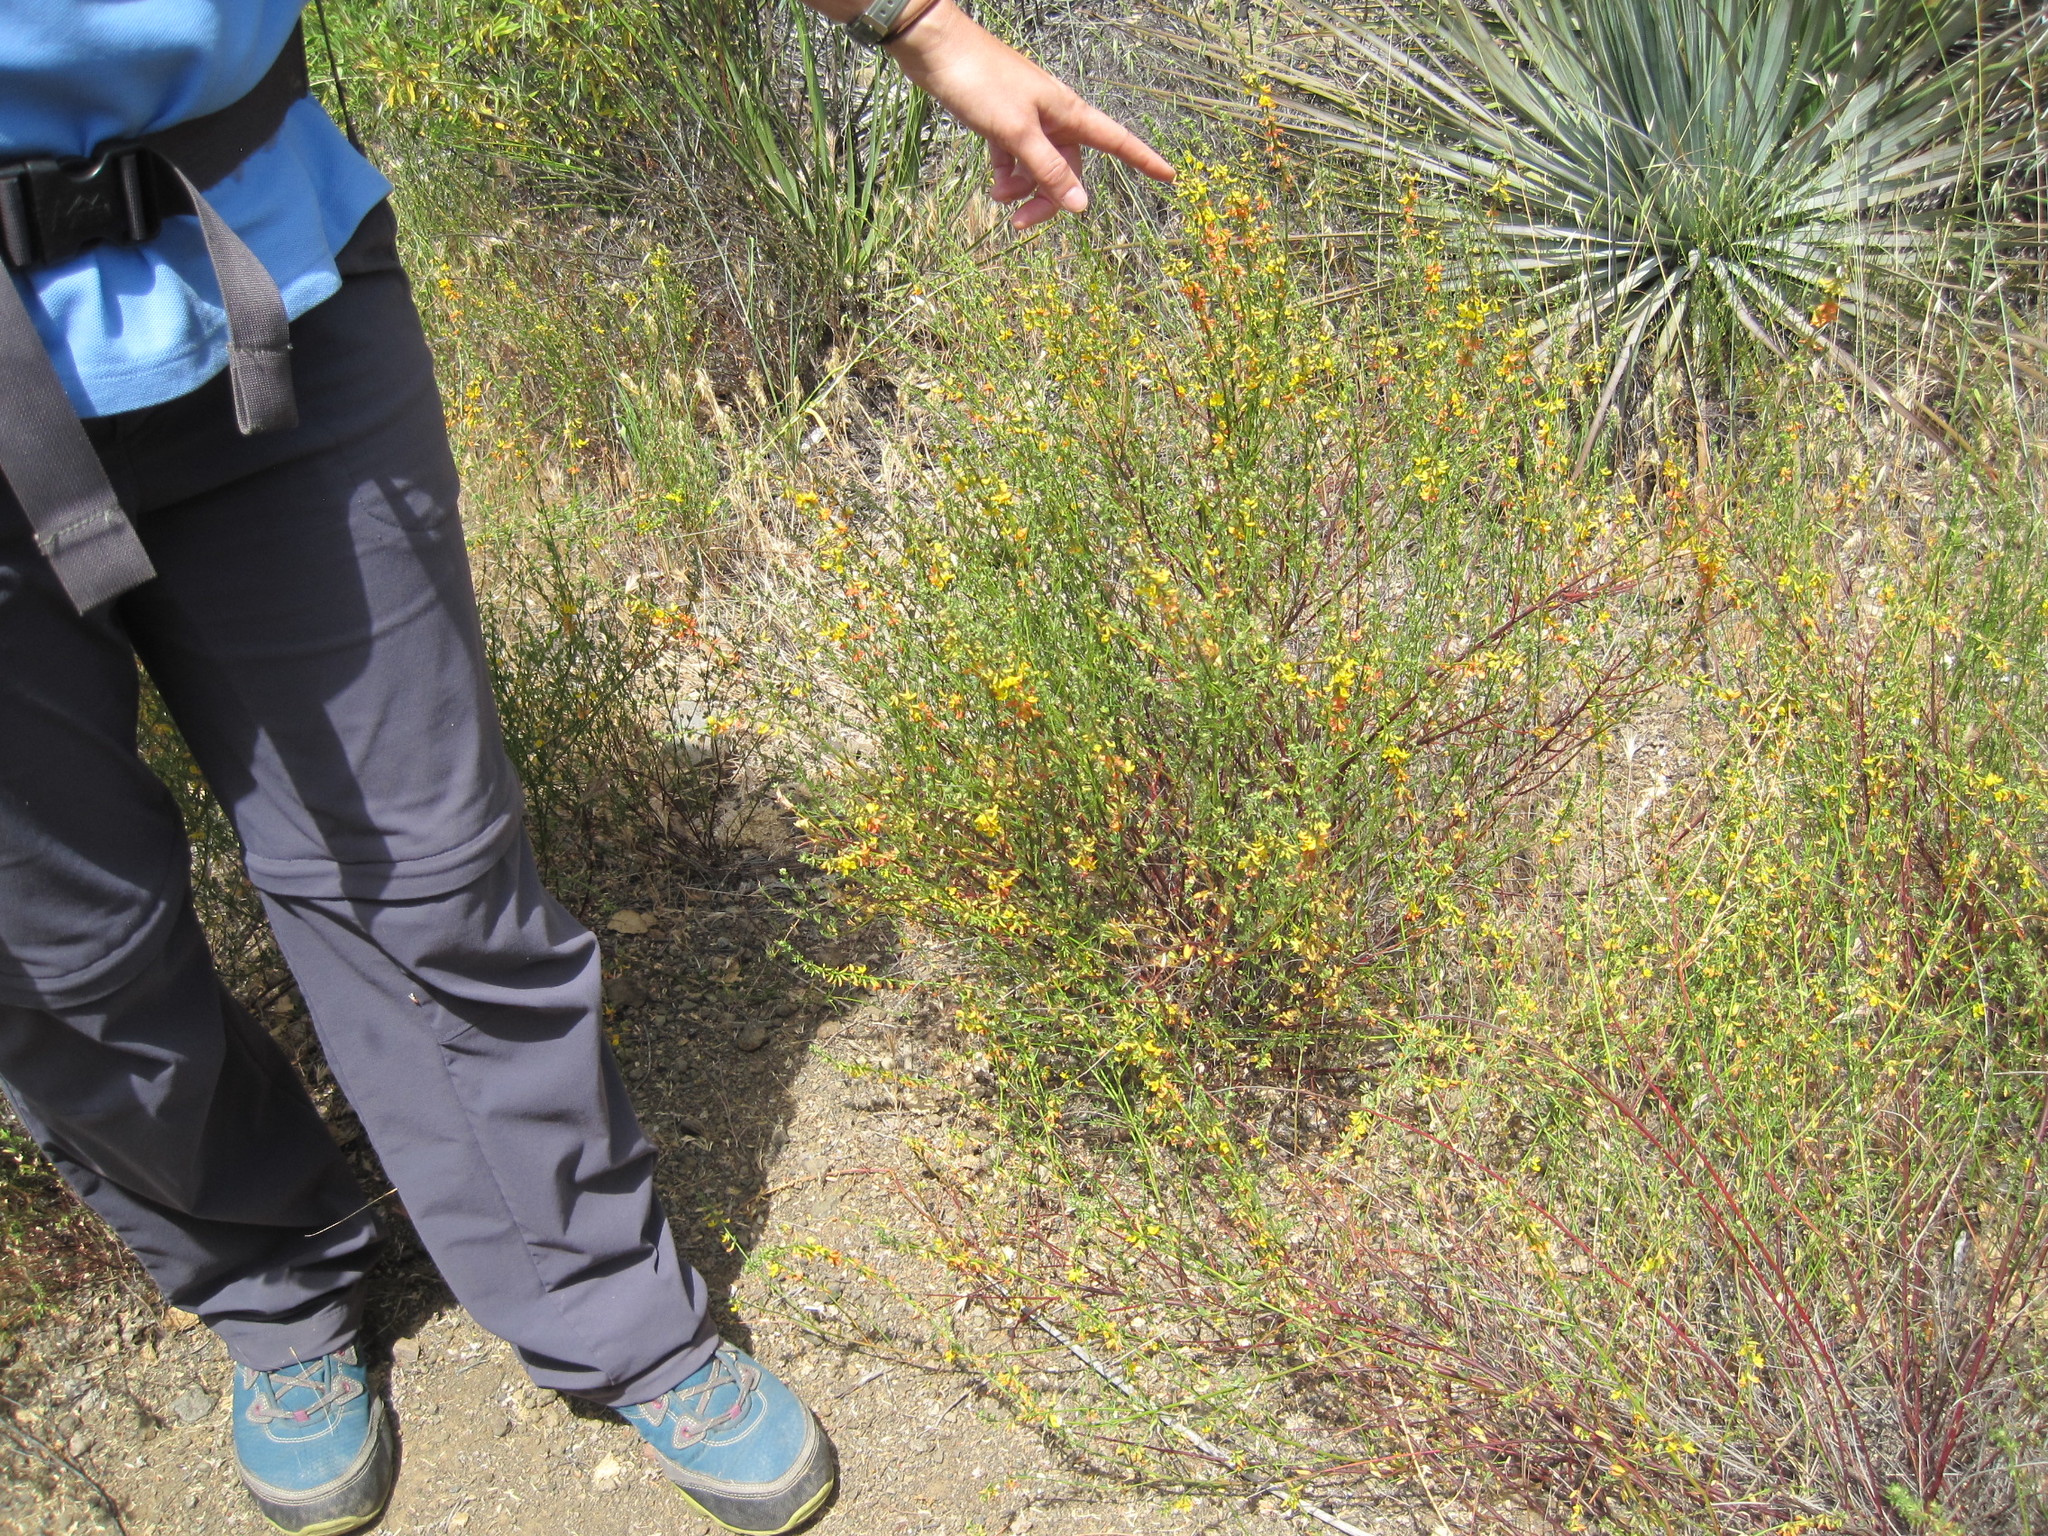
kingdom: Plantae
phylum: Tracheophyta
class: Magnoliopsida
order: Fabales
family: Fabaceae
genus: Acmispon
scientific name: Acmispon glaber
